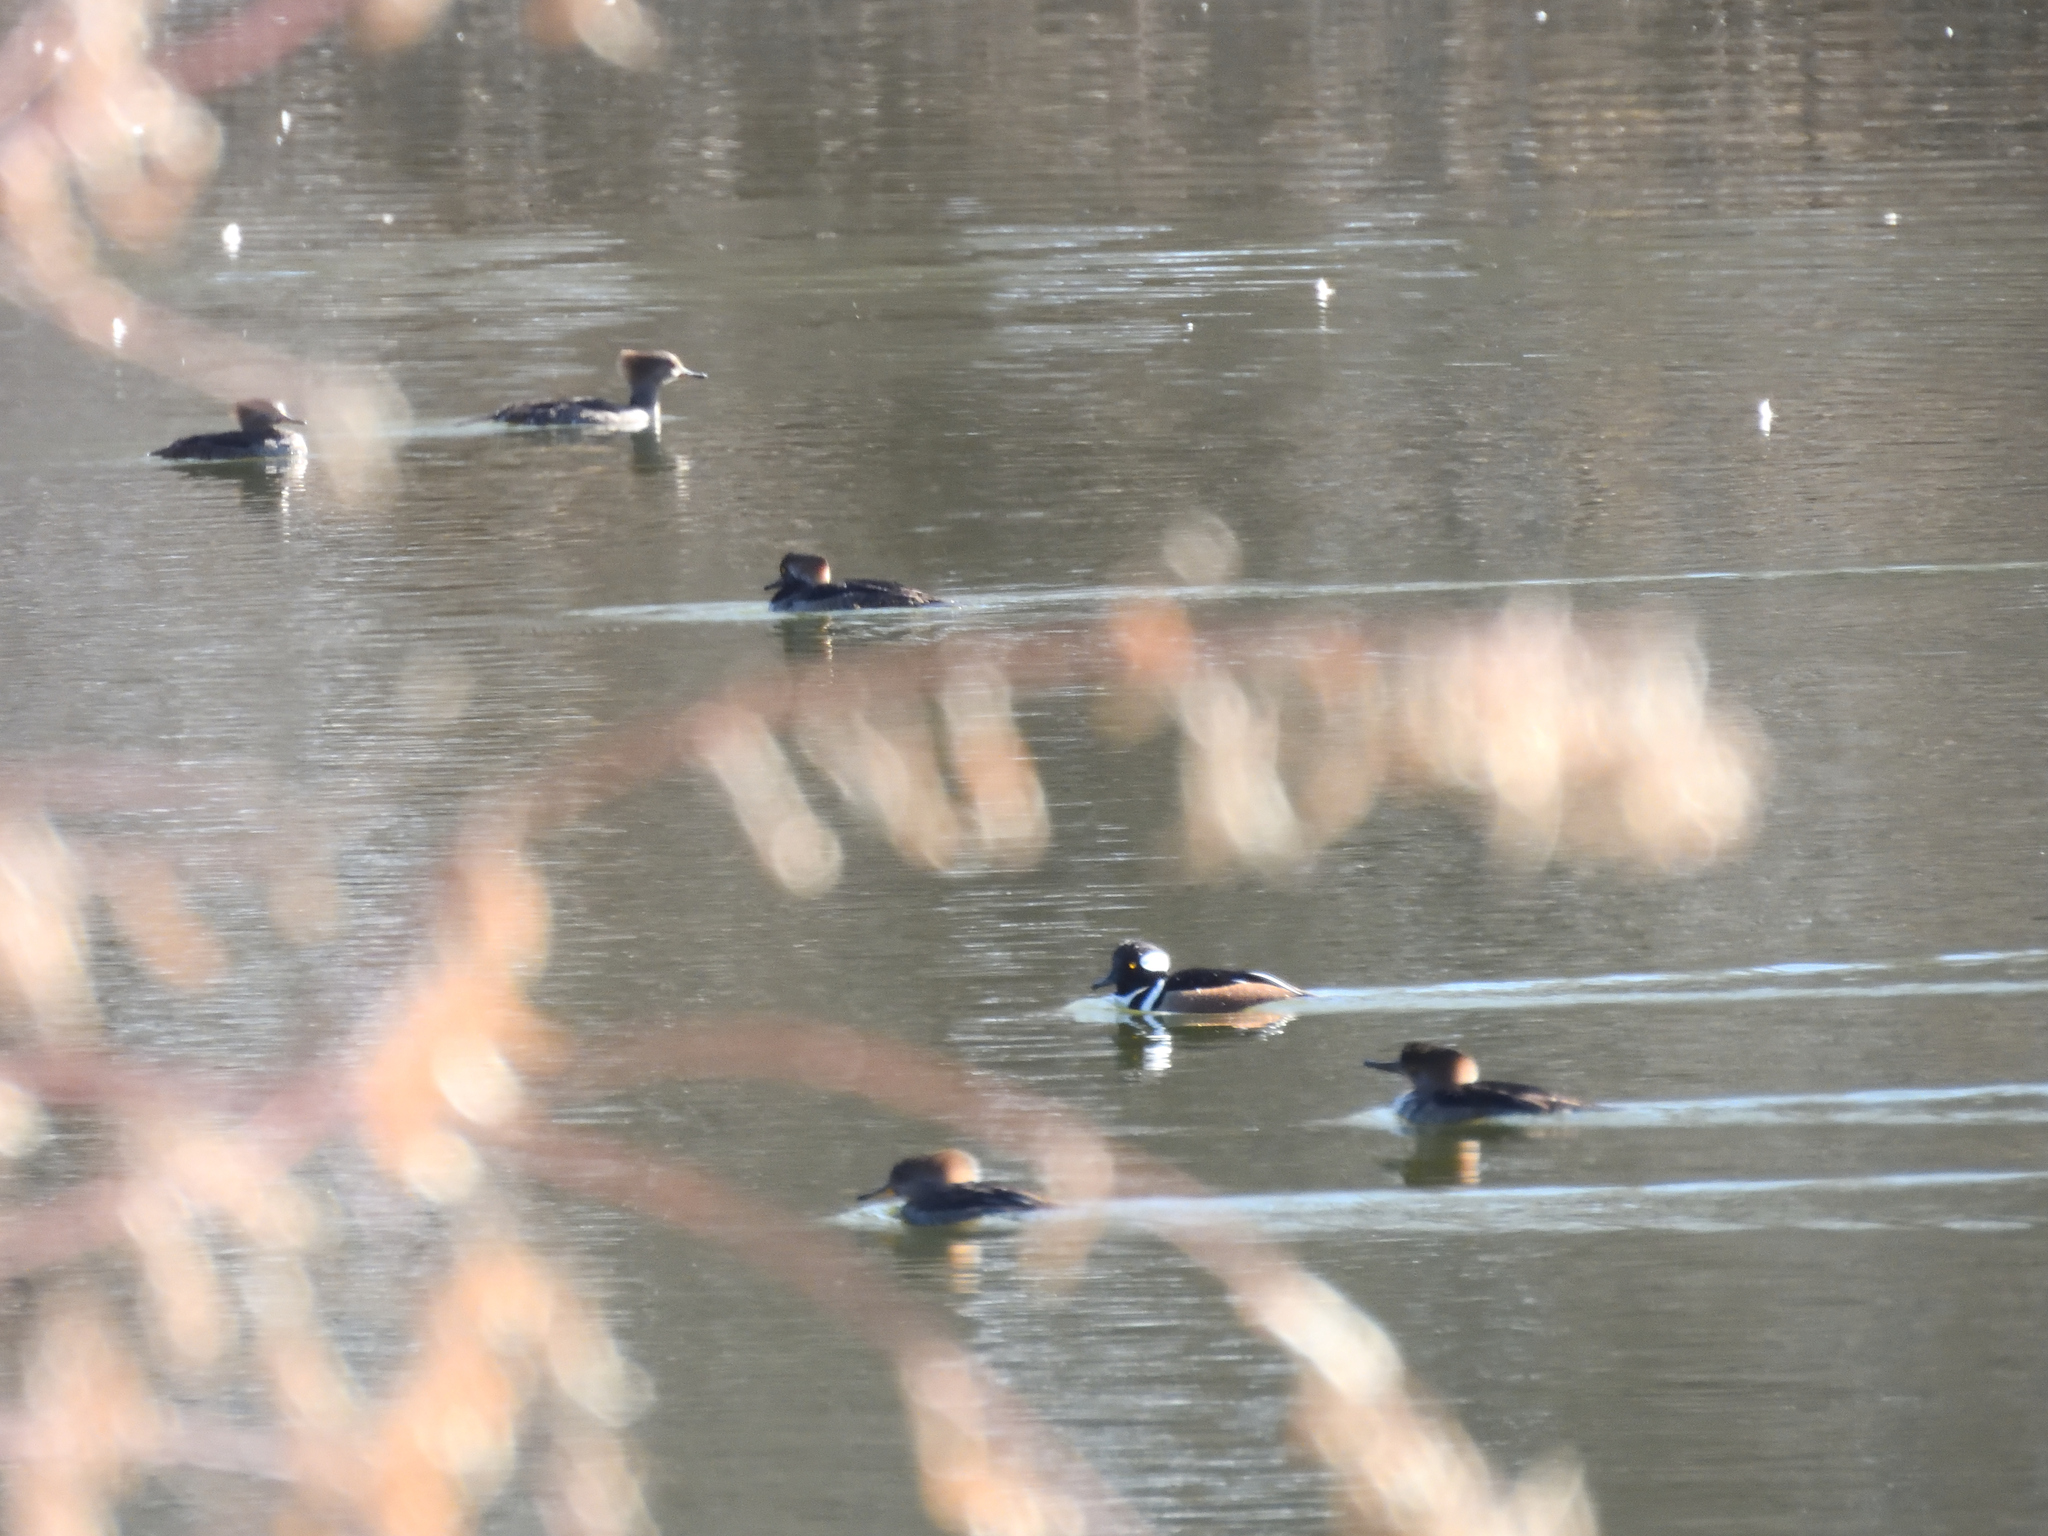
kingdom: Animalia
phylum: Chordata
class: Aves
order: Anseriformes
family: Anatidae
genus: Lophodytes
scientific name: Lophodytes cucullatus
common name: Hooded merganser
